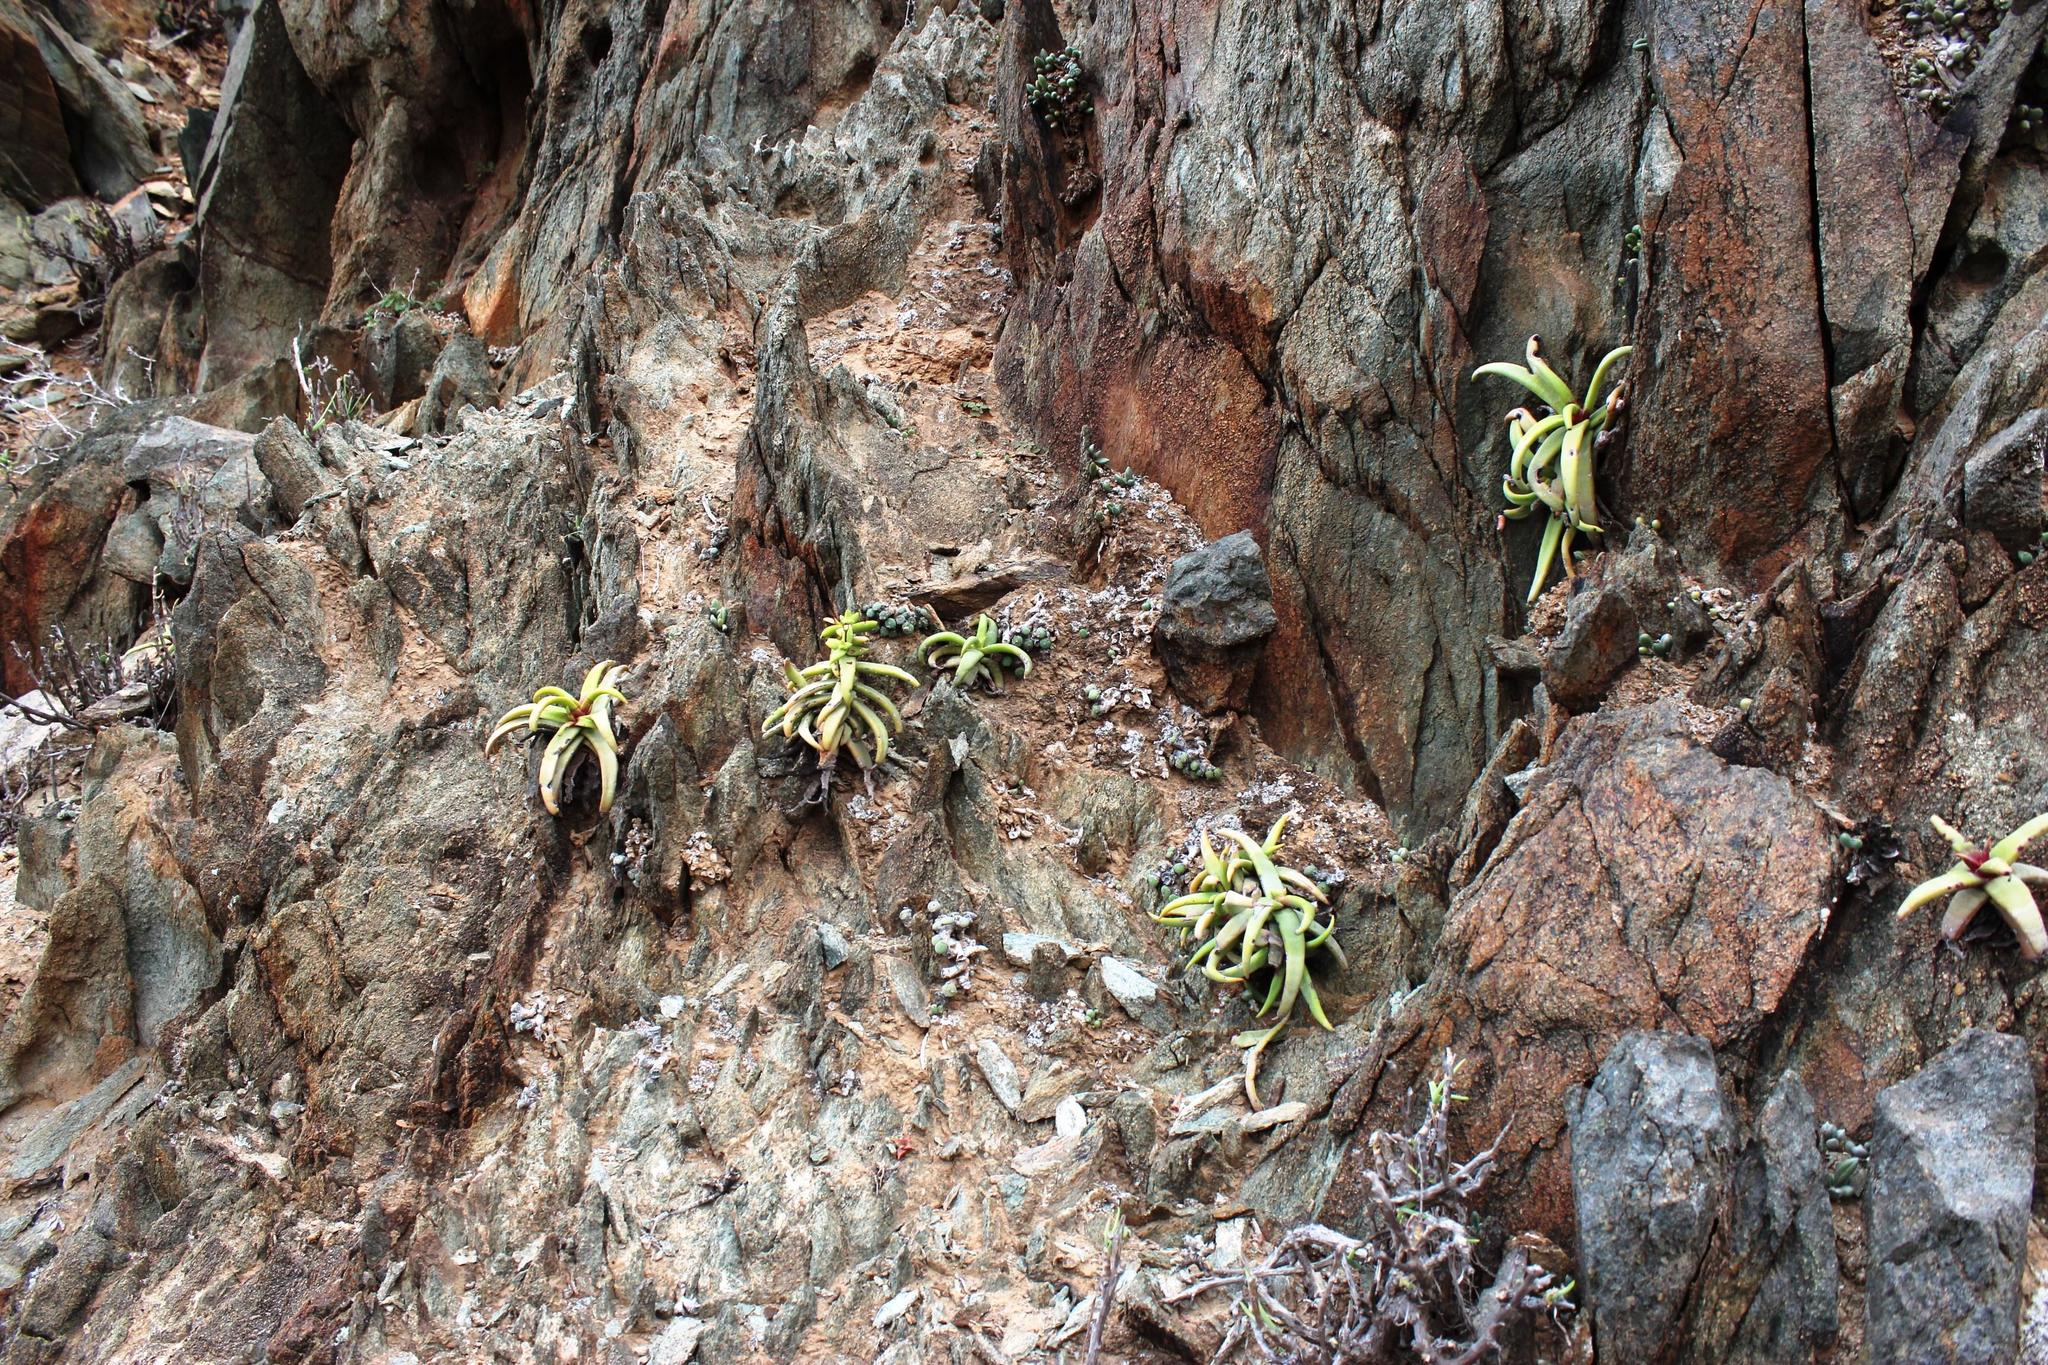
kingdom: Plantae
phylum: Tracheophyta
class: Magnoliopsida
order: Saxifragales
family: Crassulaceae
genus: Crassula
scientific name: Crassula fusca
